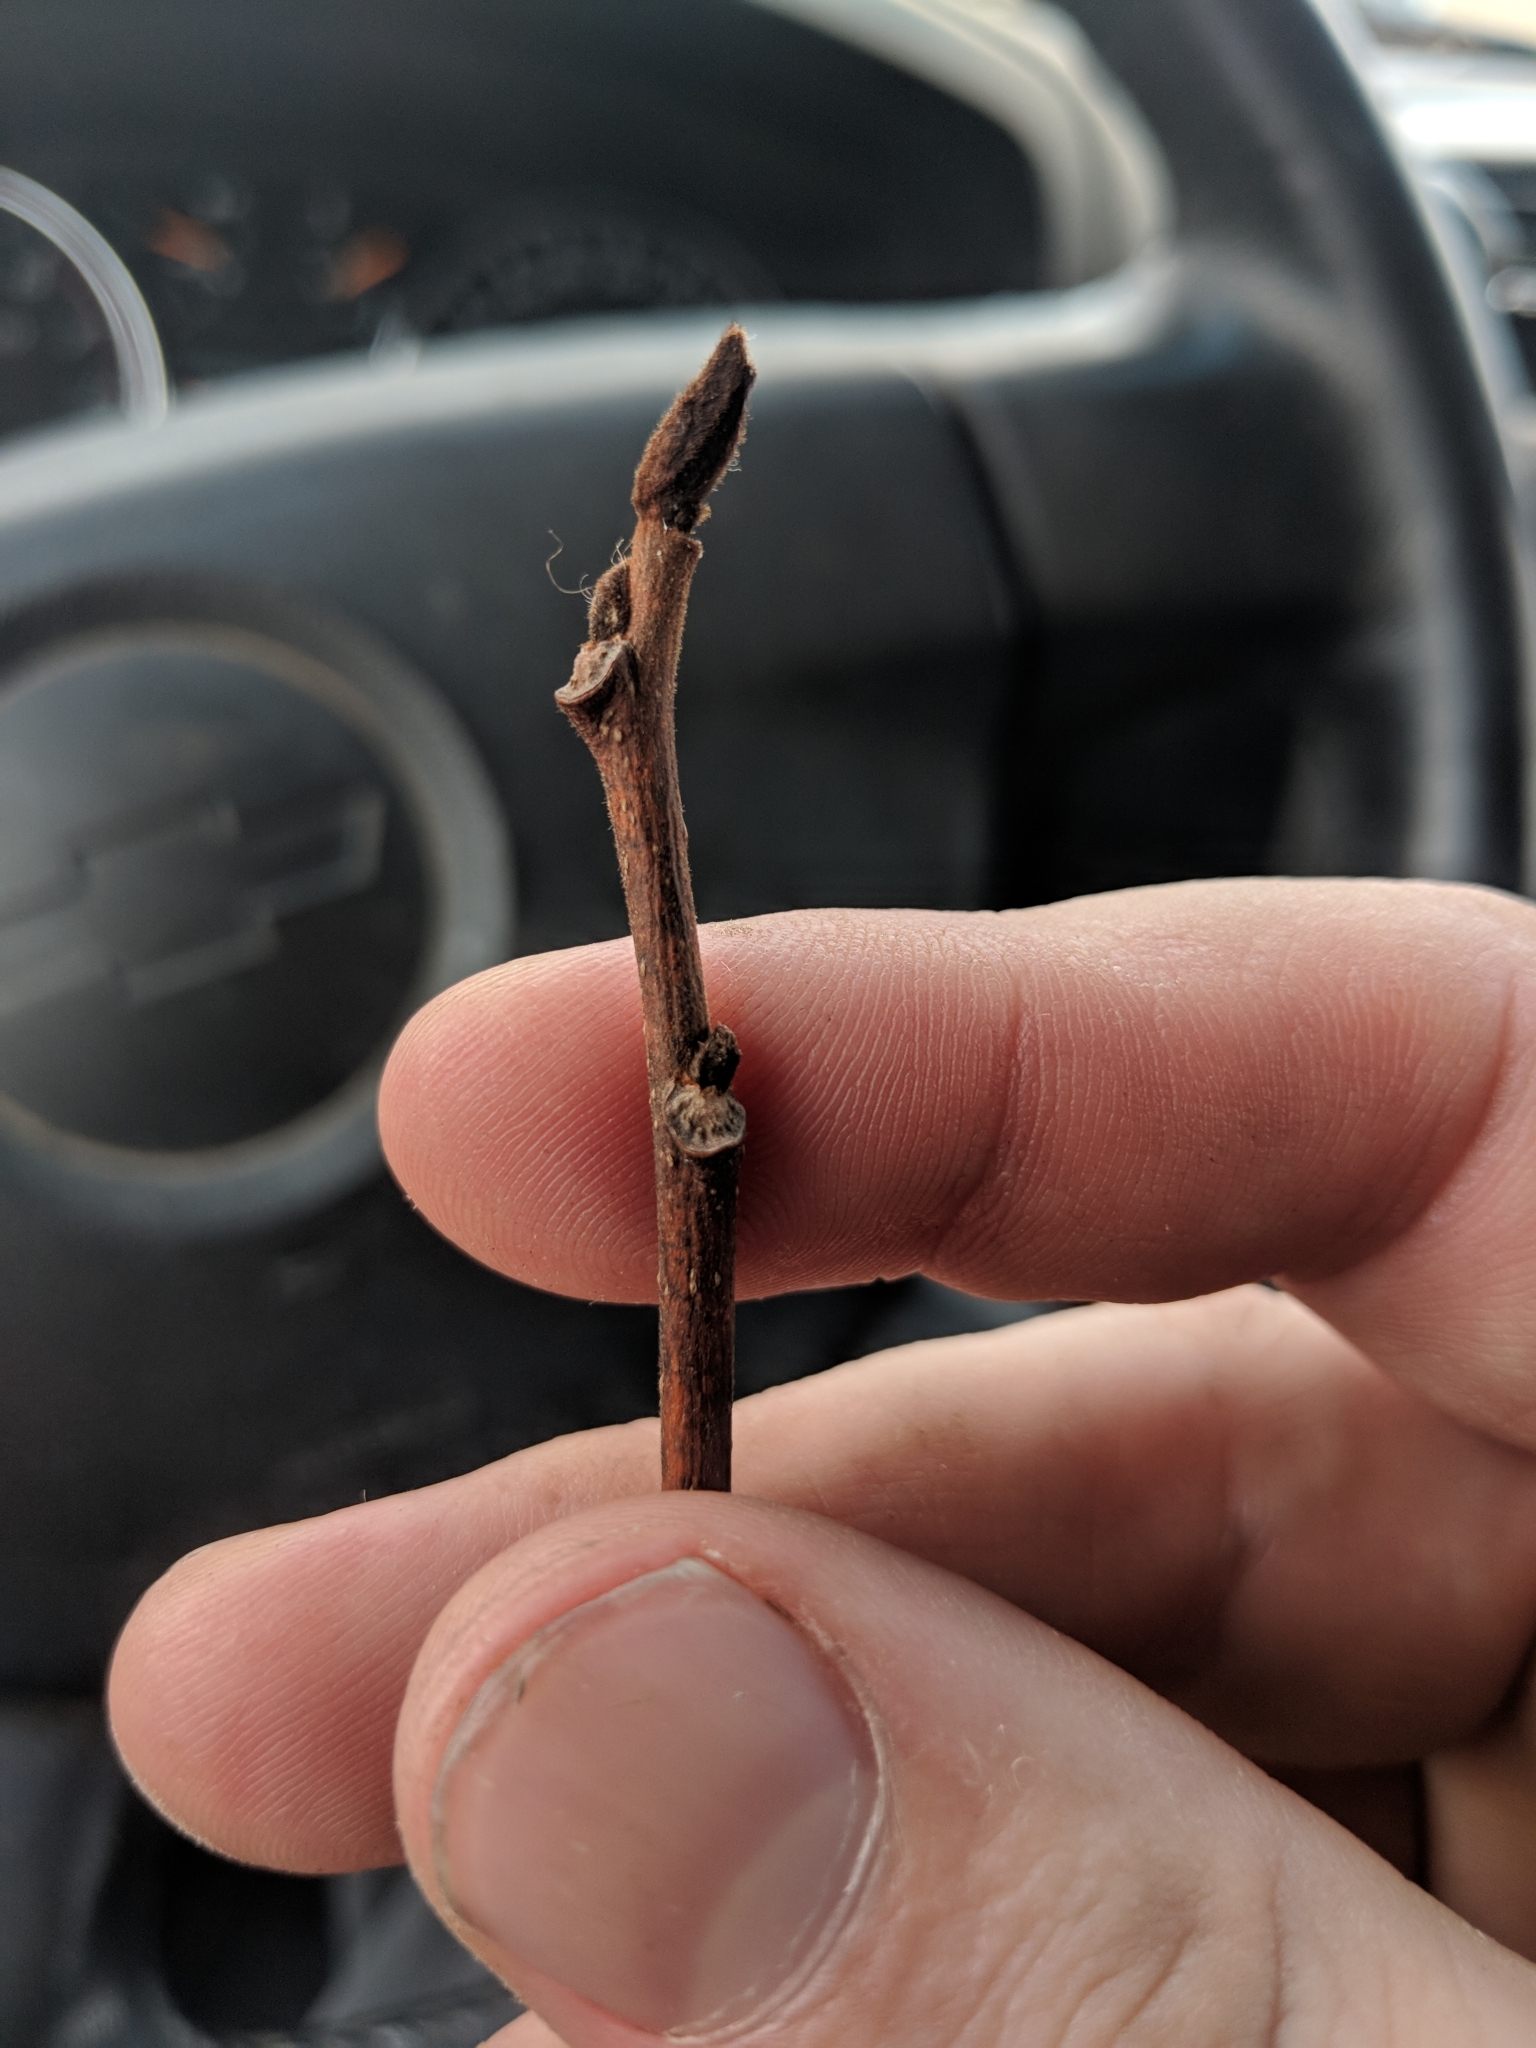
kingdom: Plantae
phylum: Tracheophyta
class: Magnoliopsida
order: Magnoliales
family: Annonaceae
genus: Asimina
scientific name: Asimina triloba
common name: Dog-banana
